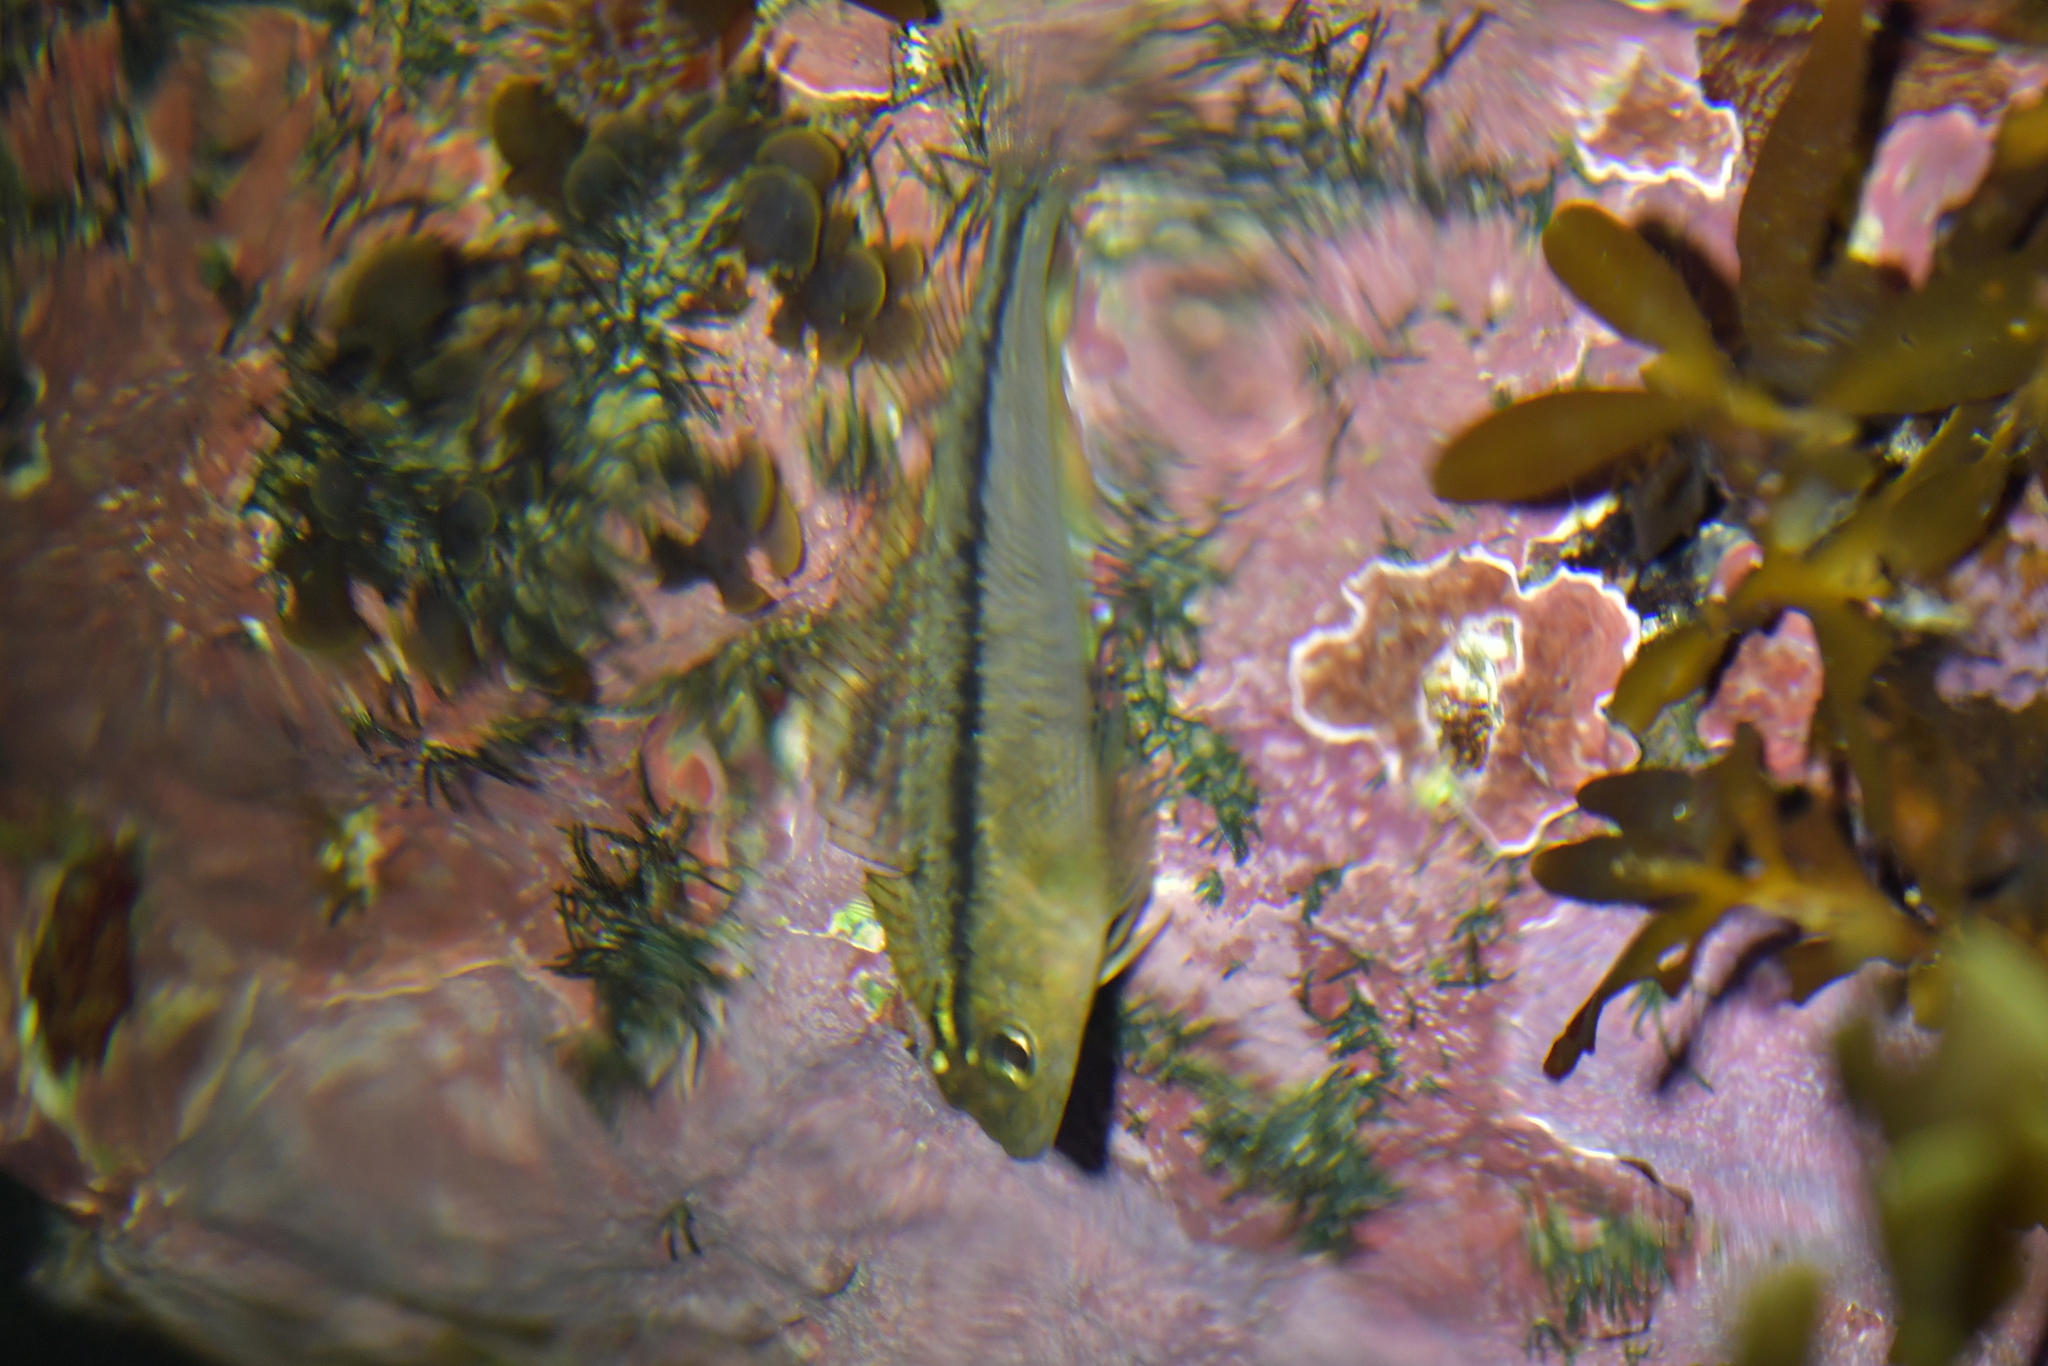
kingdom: Animalia
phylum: Chordata
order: Perciformes
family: Tripterygiidae
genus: Forsterygion
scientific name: Forsterygion lapillum
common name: Common triplefin
